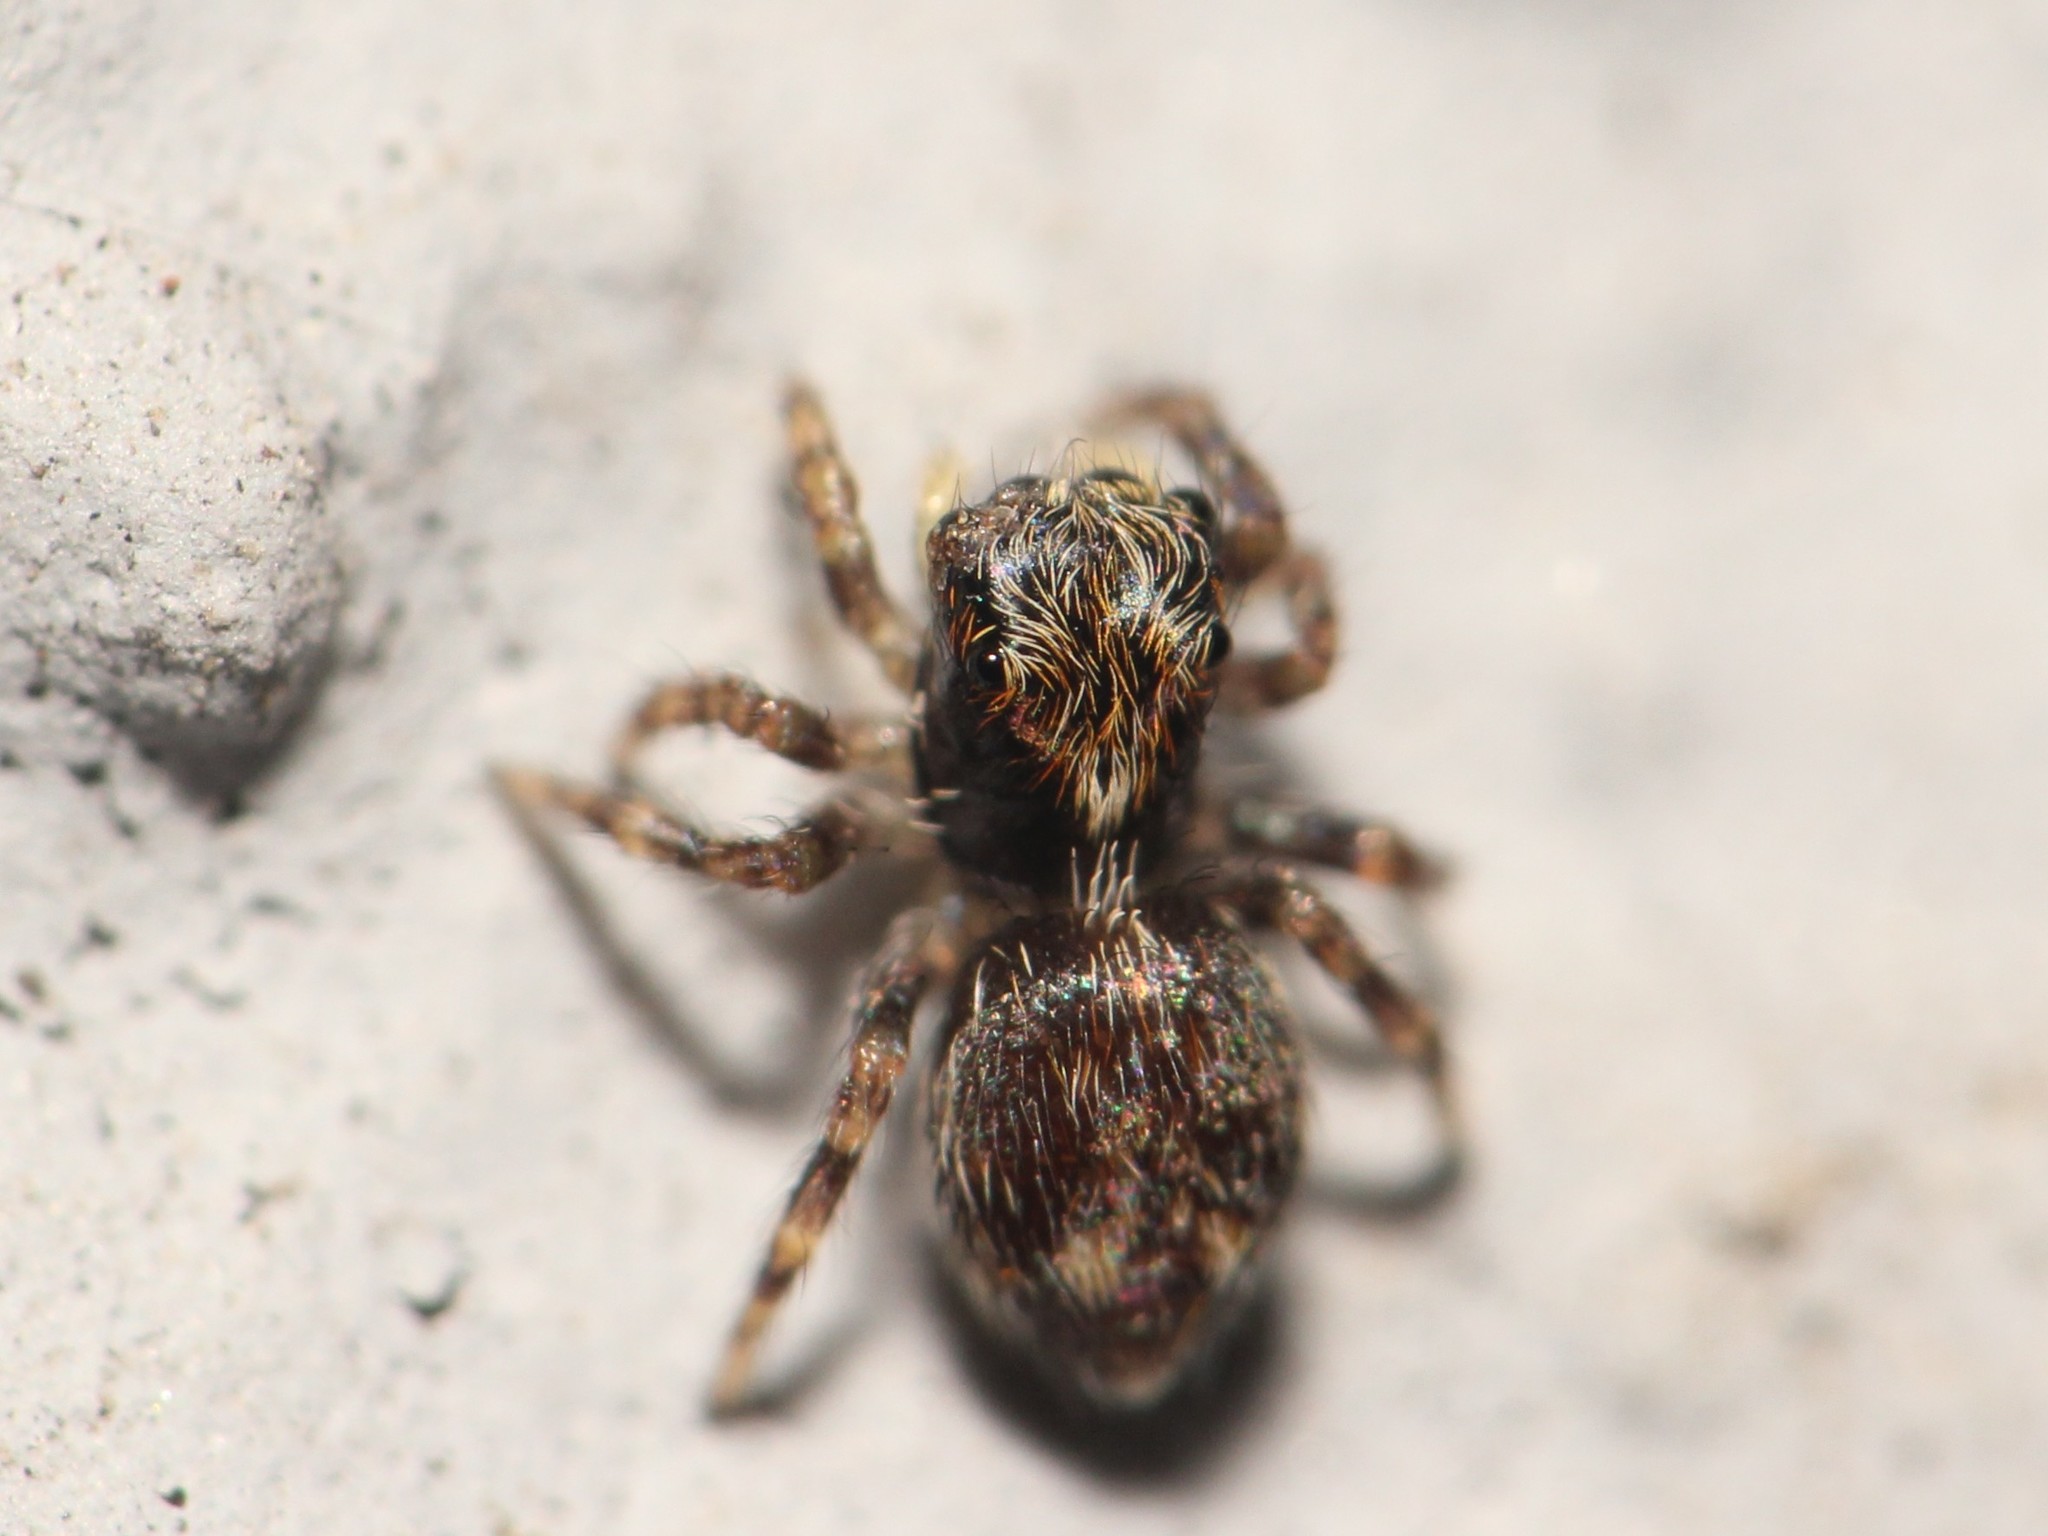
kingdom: Animalia
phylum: Arthropoda
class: Arachnida
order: Araneae
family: Salticidae
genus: Pseudeuophrys
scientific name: Pseudeuophrys lanigera
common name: Jumping spider
